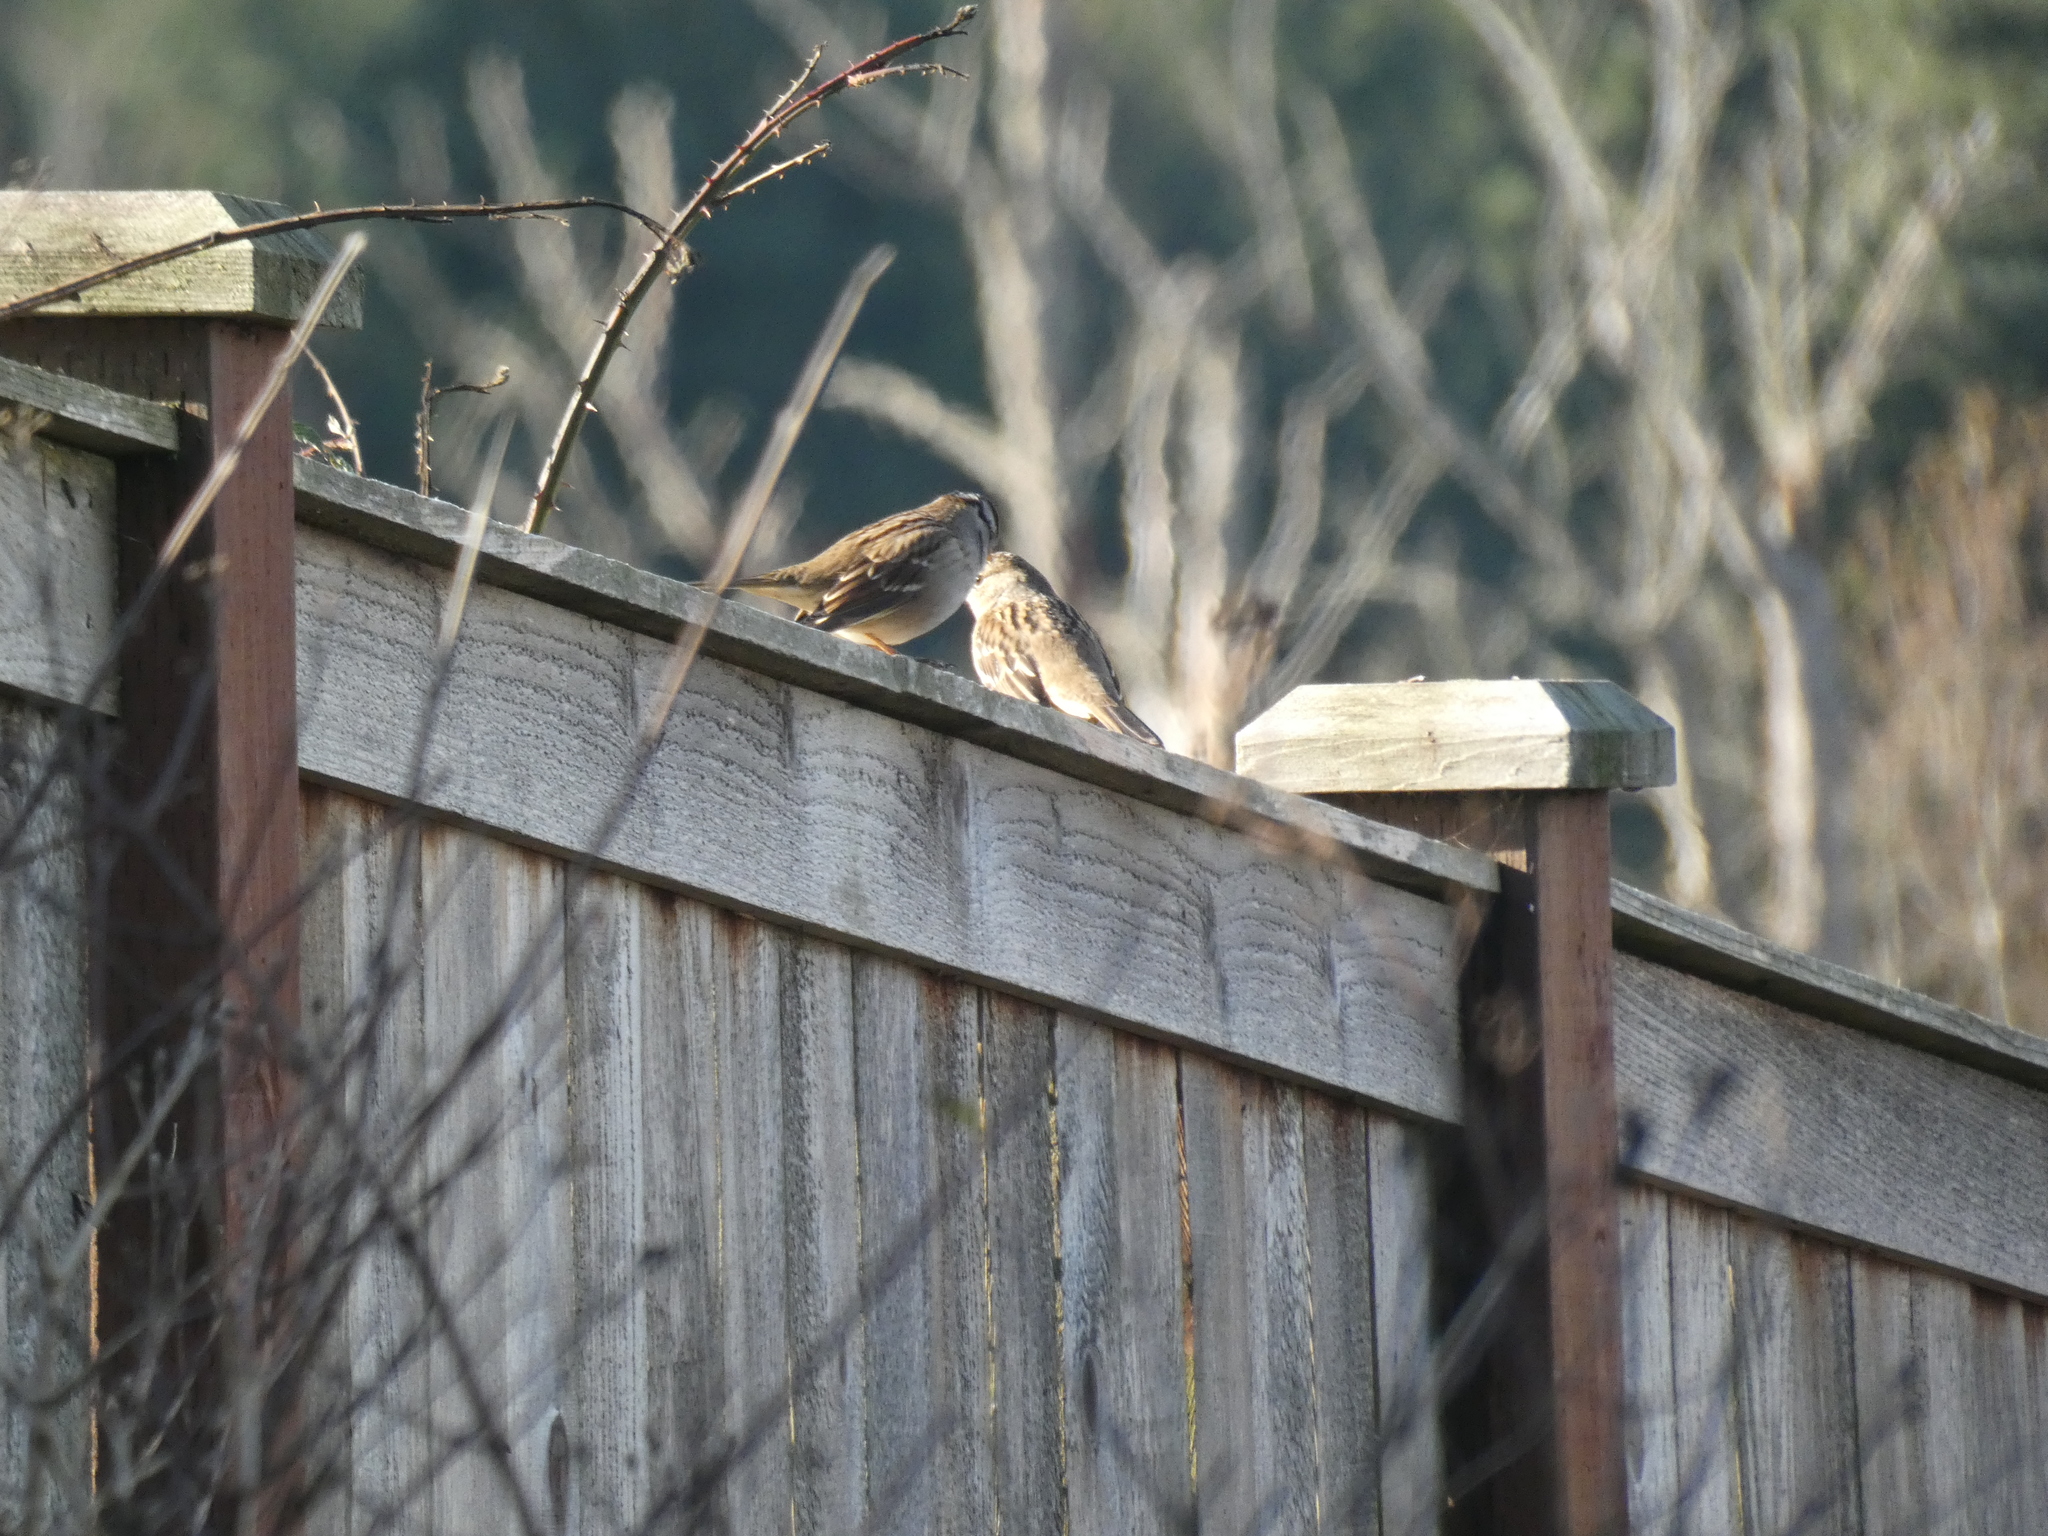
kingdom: Animalia
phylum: Chordata
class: Aves
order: Passeriformes
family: Passerellidae
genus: Zonotrichia
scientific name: Zonotrichia leucophrys
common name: White-crowned sparrow
